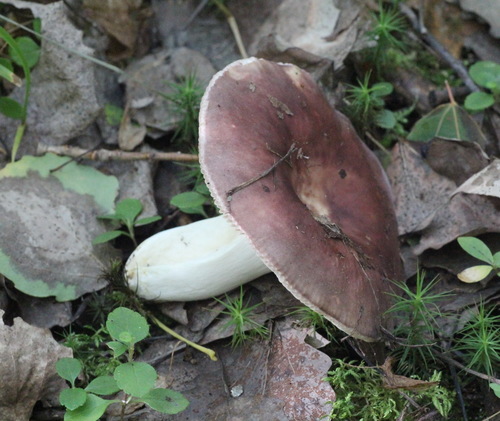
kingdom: Fungi
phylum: Basidiomycota
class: Agaricomycetes
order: Russulales
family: Russulaceae
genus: Russula
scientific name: Russula vesca
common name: Bare-toothed russula
